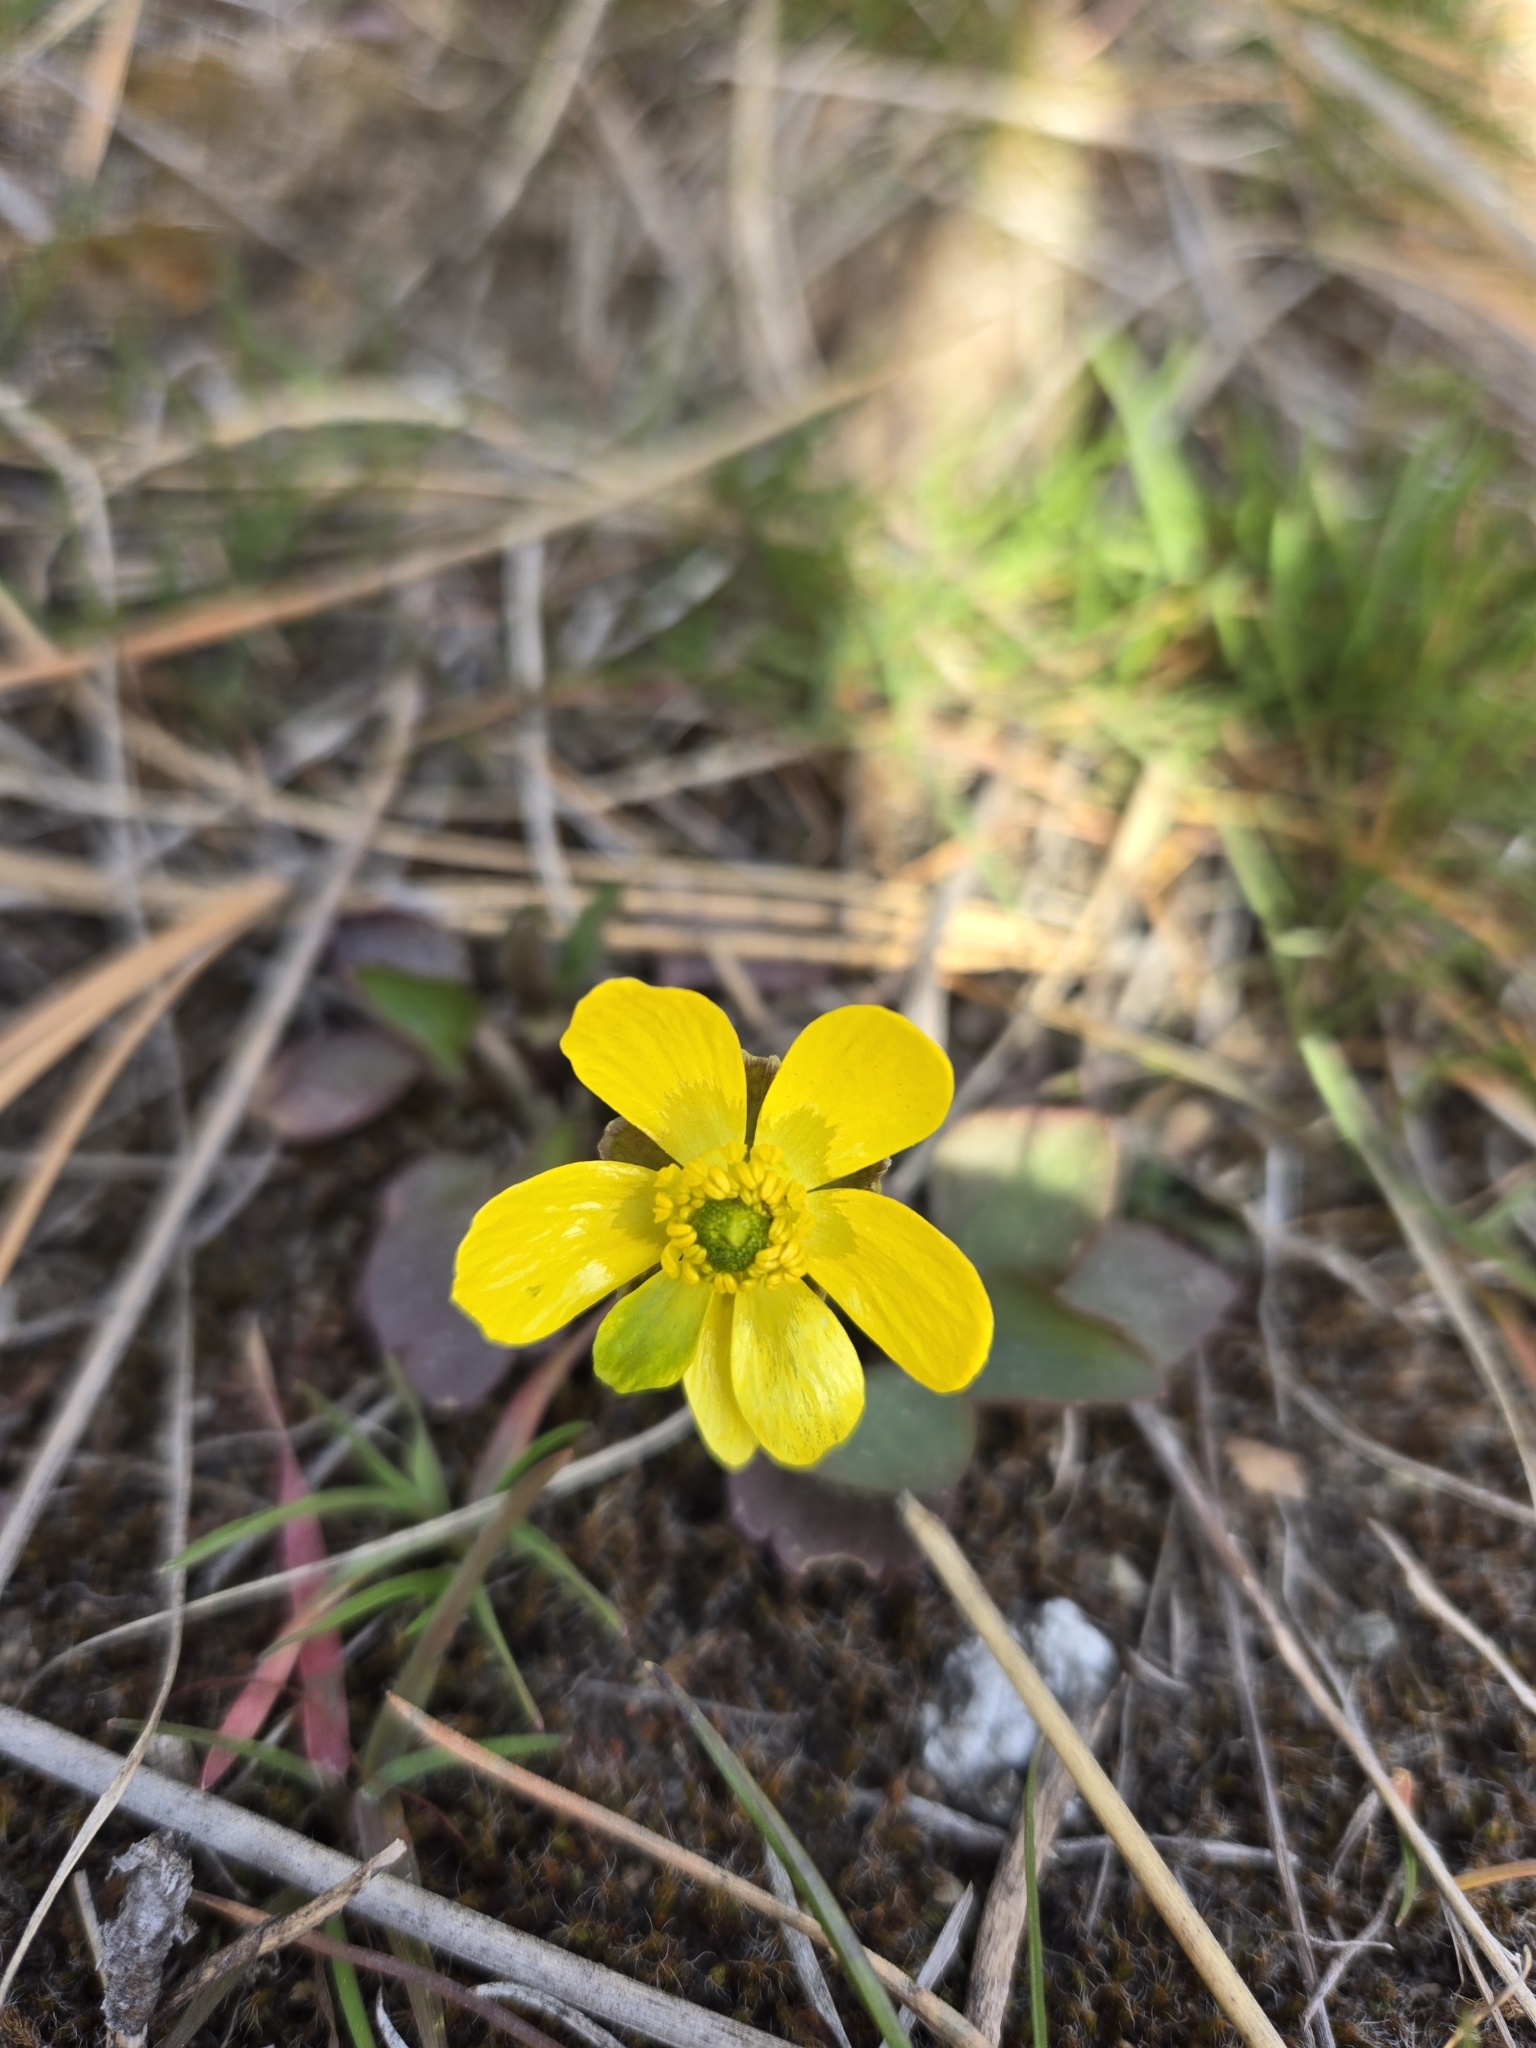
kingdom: Plantae
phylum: Tracheophyta
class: Magnoliopsida
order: Ranunculales
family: Ranunculaceae
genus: Ranunculus
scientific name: Ranunculus glaberrimus
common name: Sagebrush buttercup
